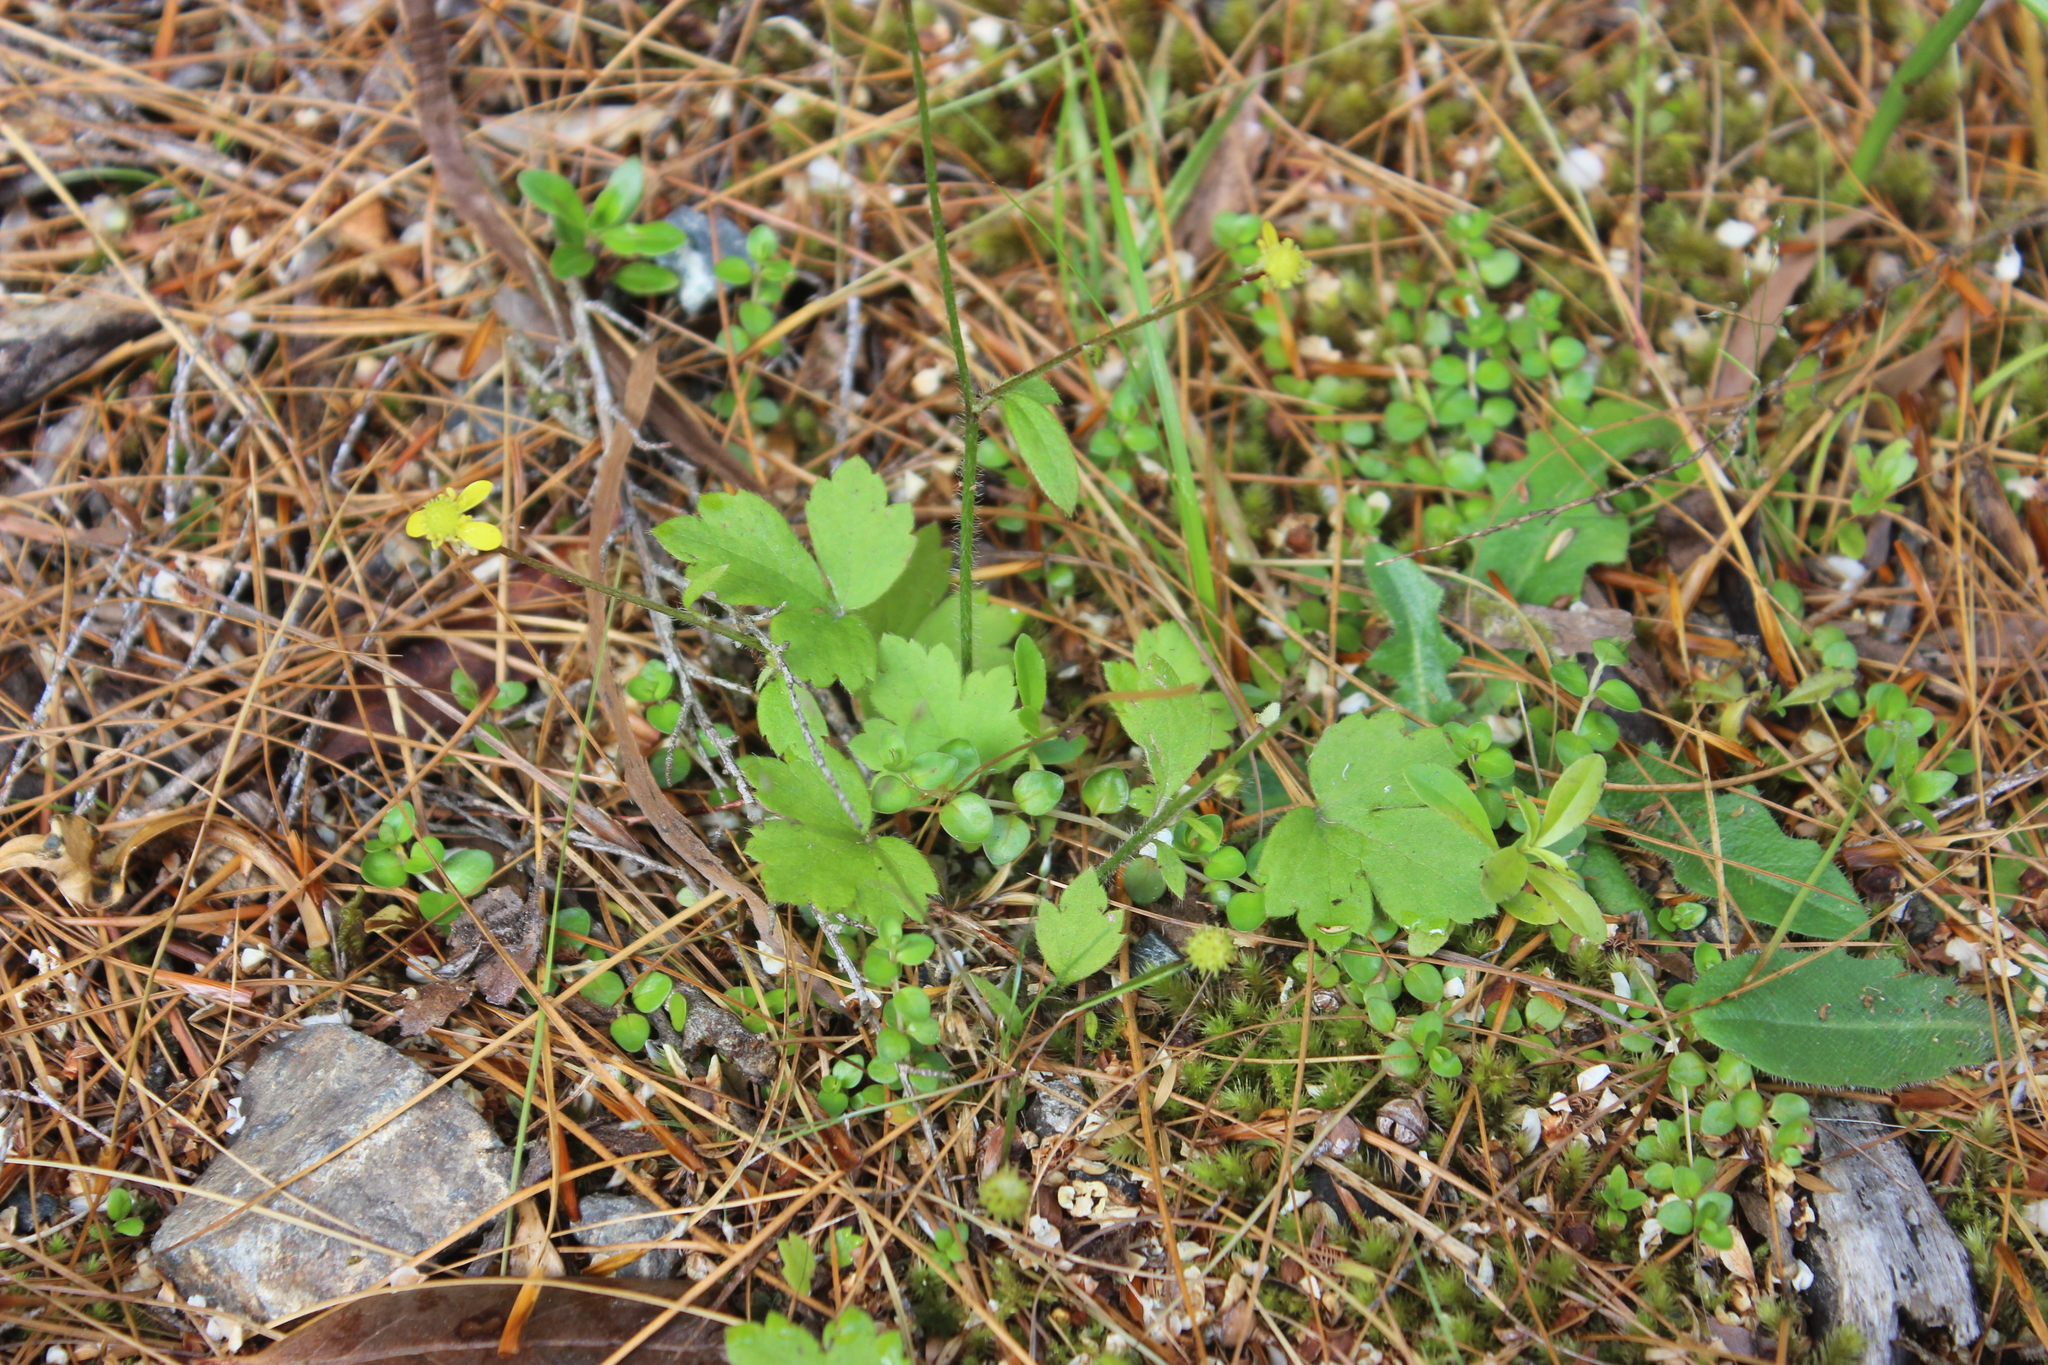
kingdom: Plantae
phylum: Tracheophyta
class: Magnoliopsida
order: Ranunculales
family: Ranunculaceae
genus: Ranunculus
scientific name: Ranunculus reflexus
